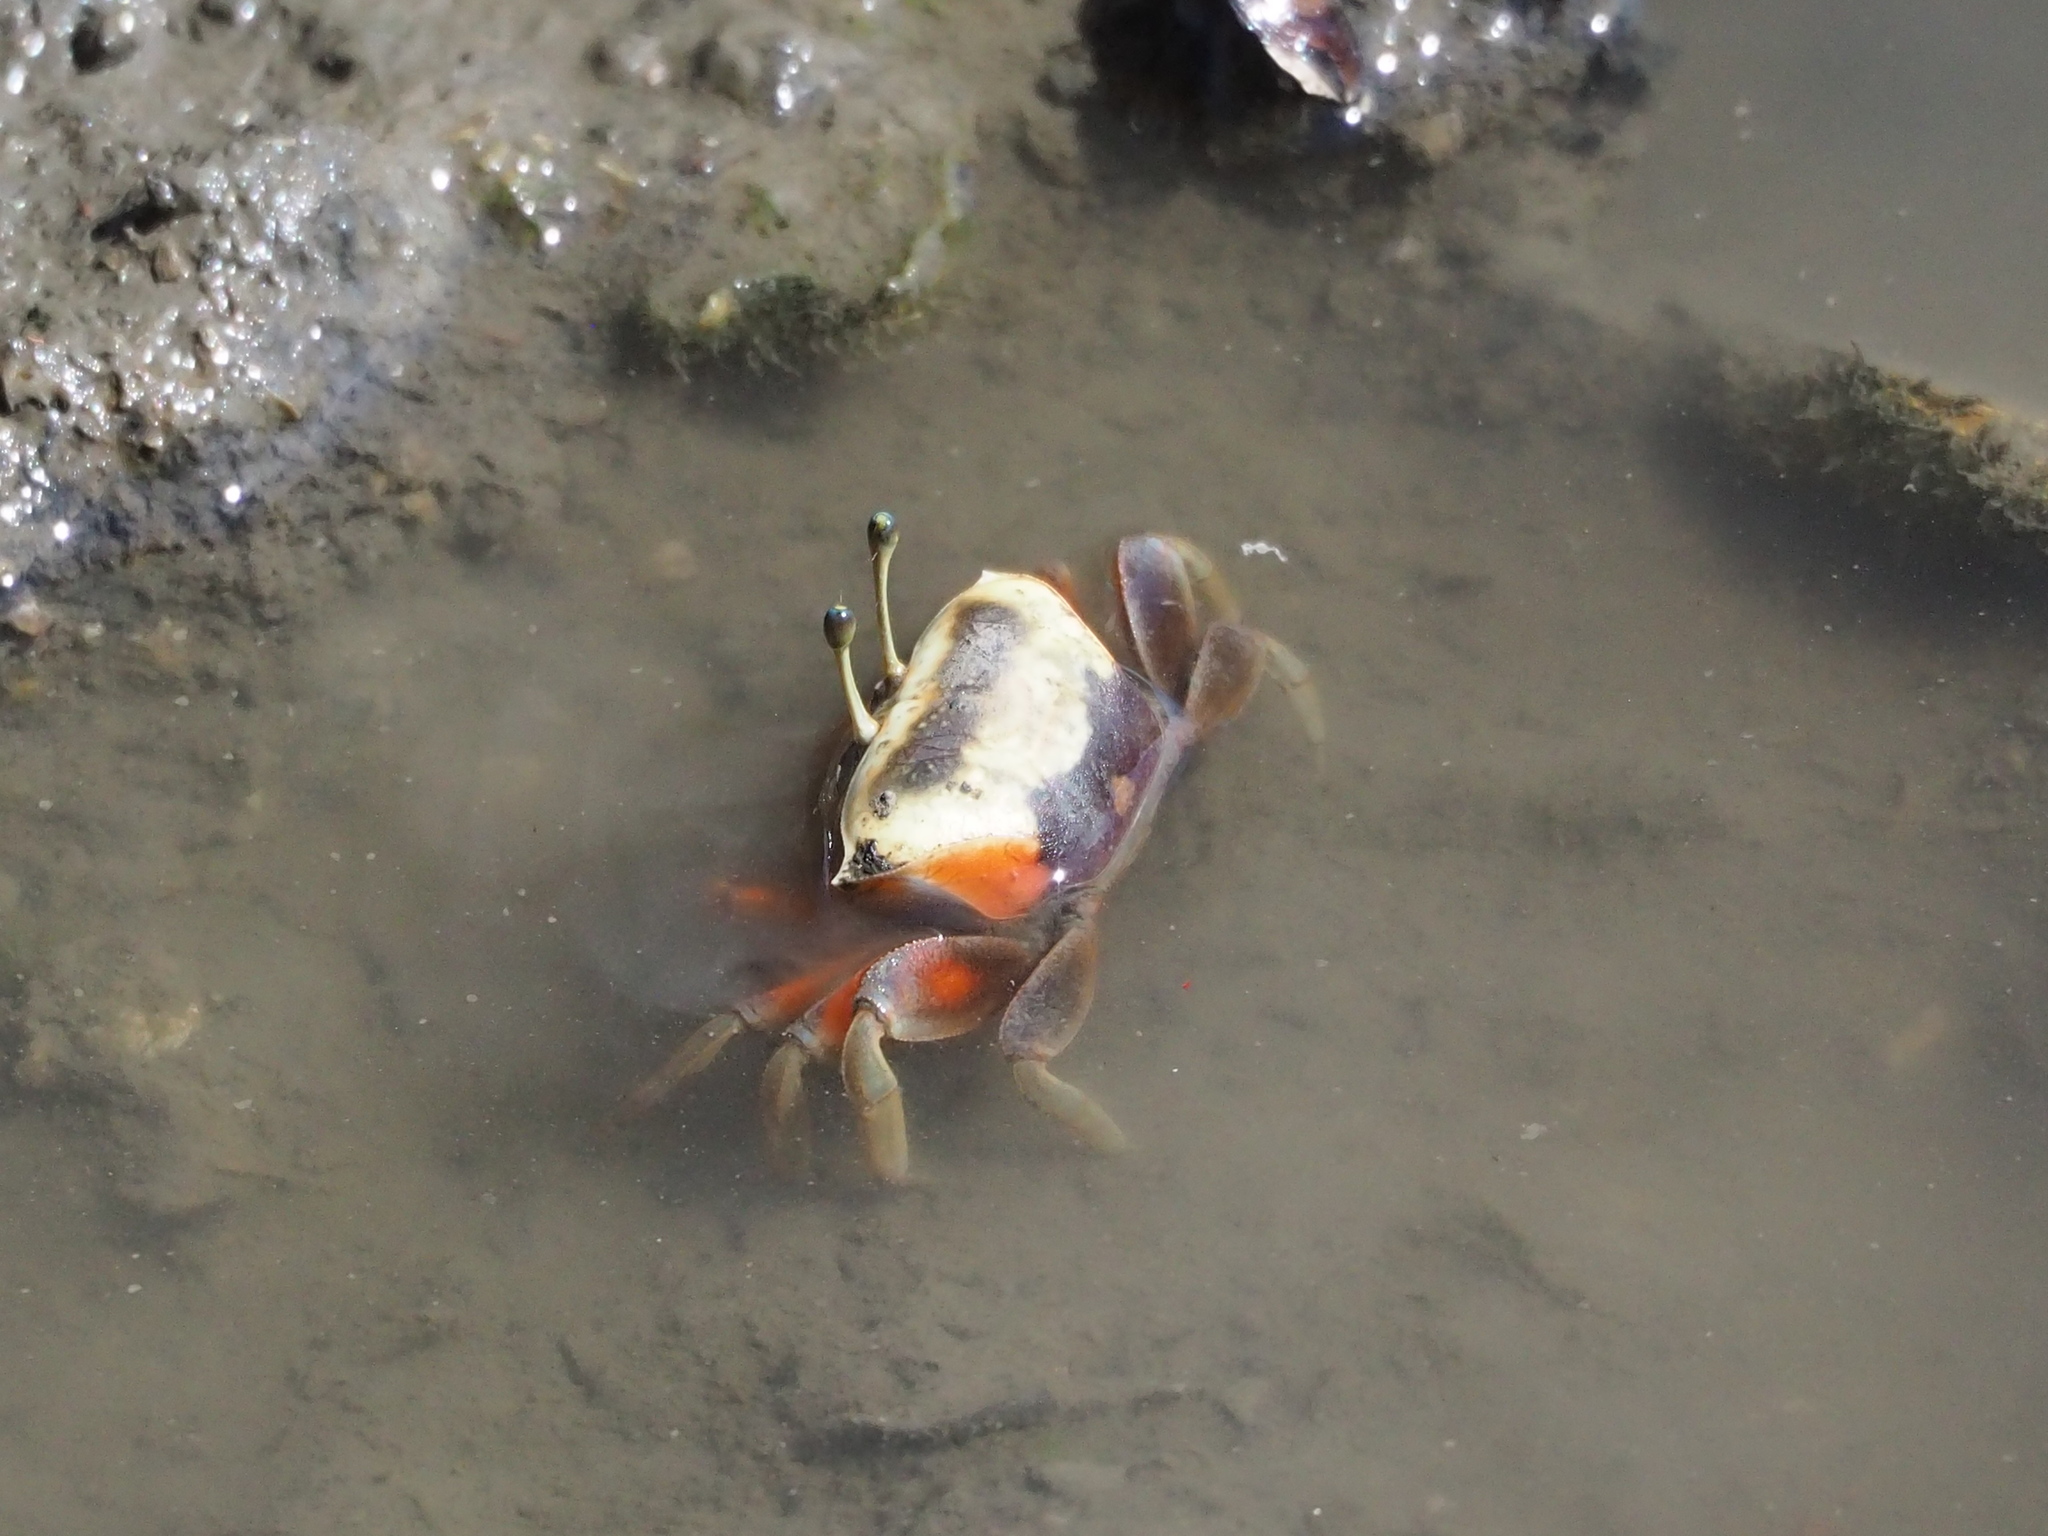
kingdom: Animalia
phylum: Arthropoda
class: Malacostraca
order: Decapoda
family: Ocypodidae
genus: Tubuca
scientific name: Tubuca arcuata
